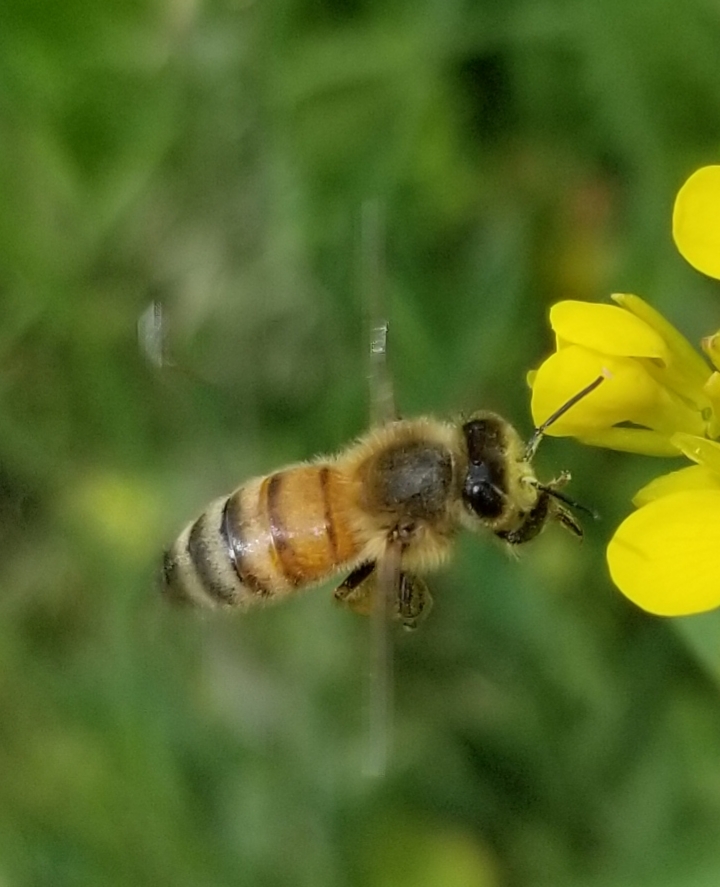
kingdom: Animalia
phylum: Arthropoda
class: Insecta
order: Hymenoptera
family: Apidae
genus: Apis
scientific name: Apis mellifera
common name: Honey bee
